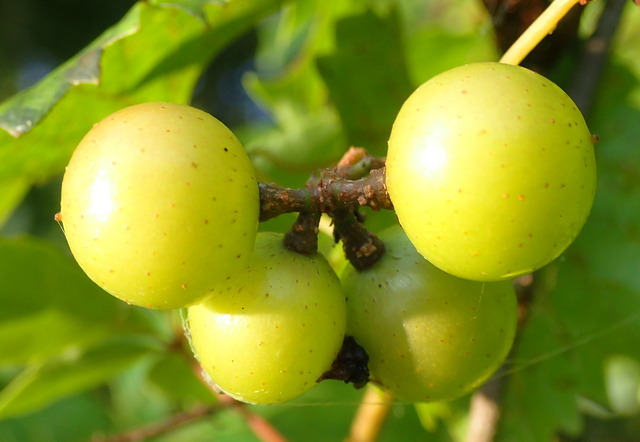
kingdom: Plantae
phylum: Tracheophyta
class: Magnoliopsida
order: Vitales
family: Vitaceae
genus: Vitis
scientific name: Vitis rotundifolia
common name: Muscadine grape
